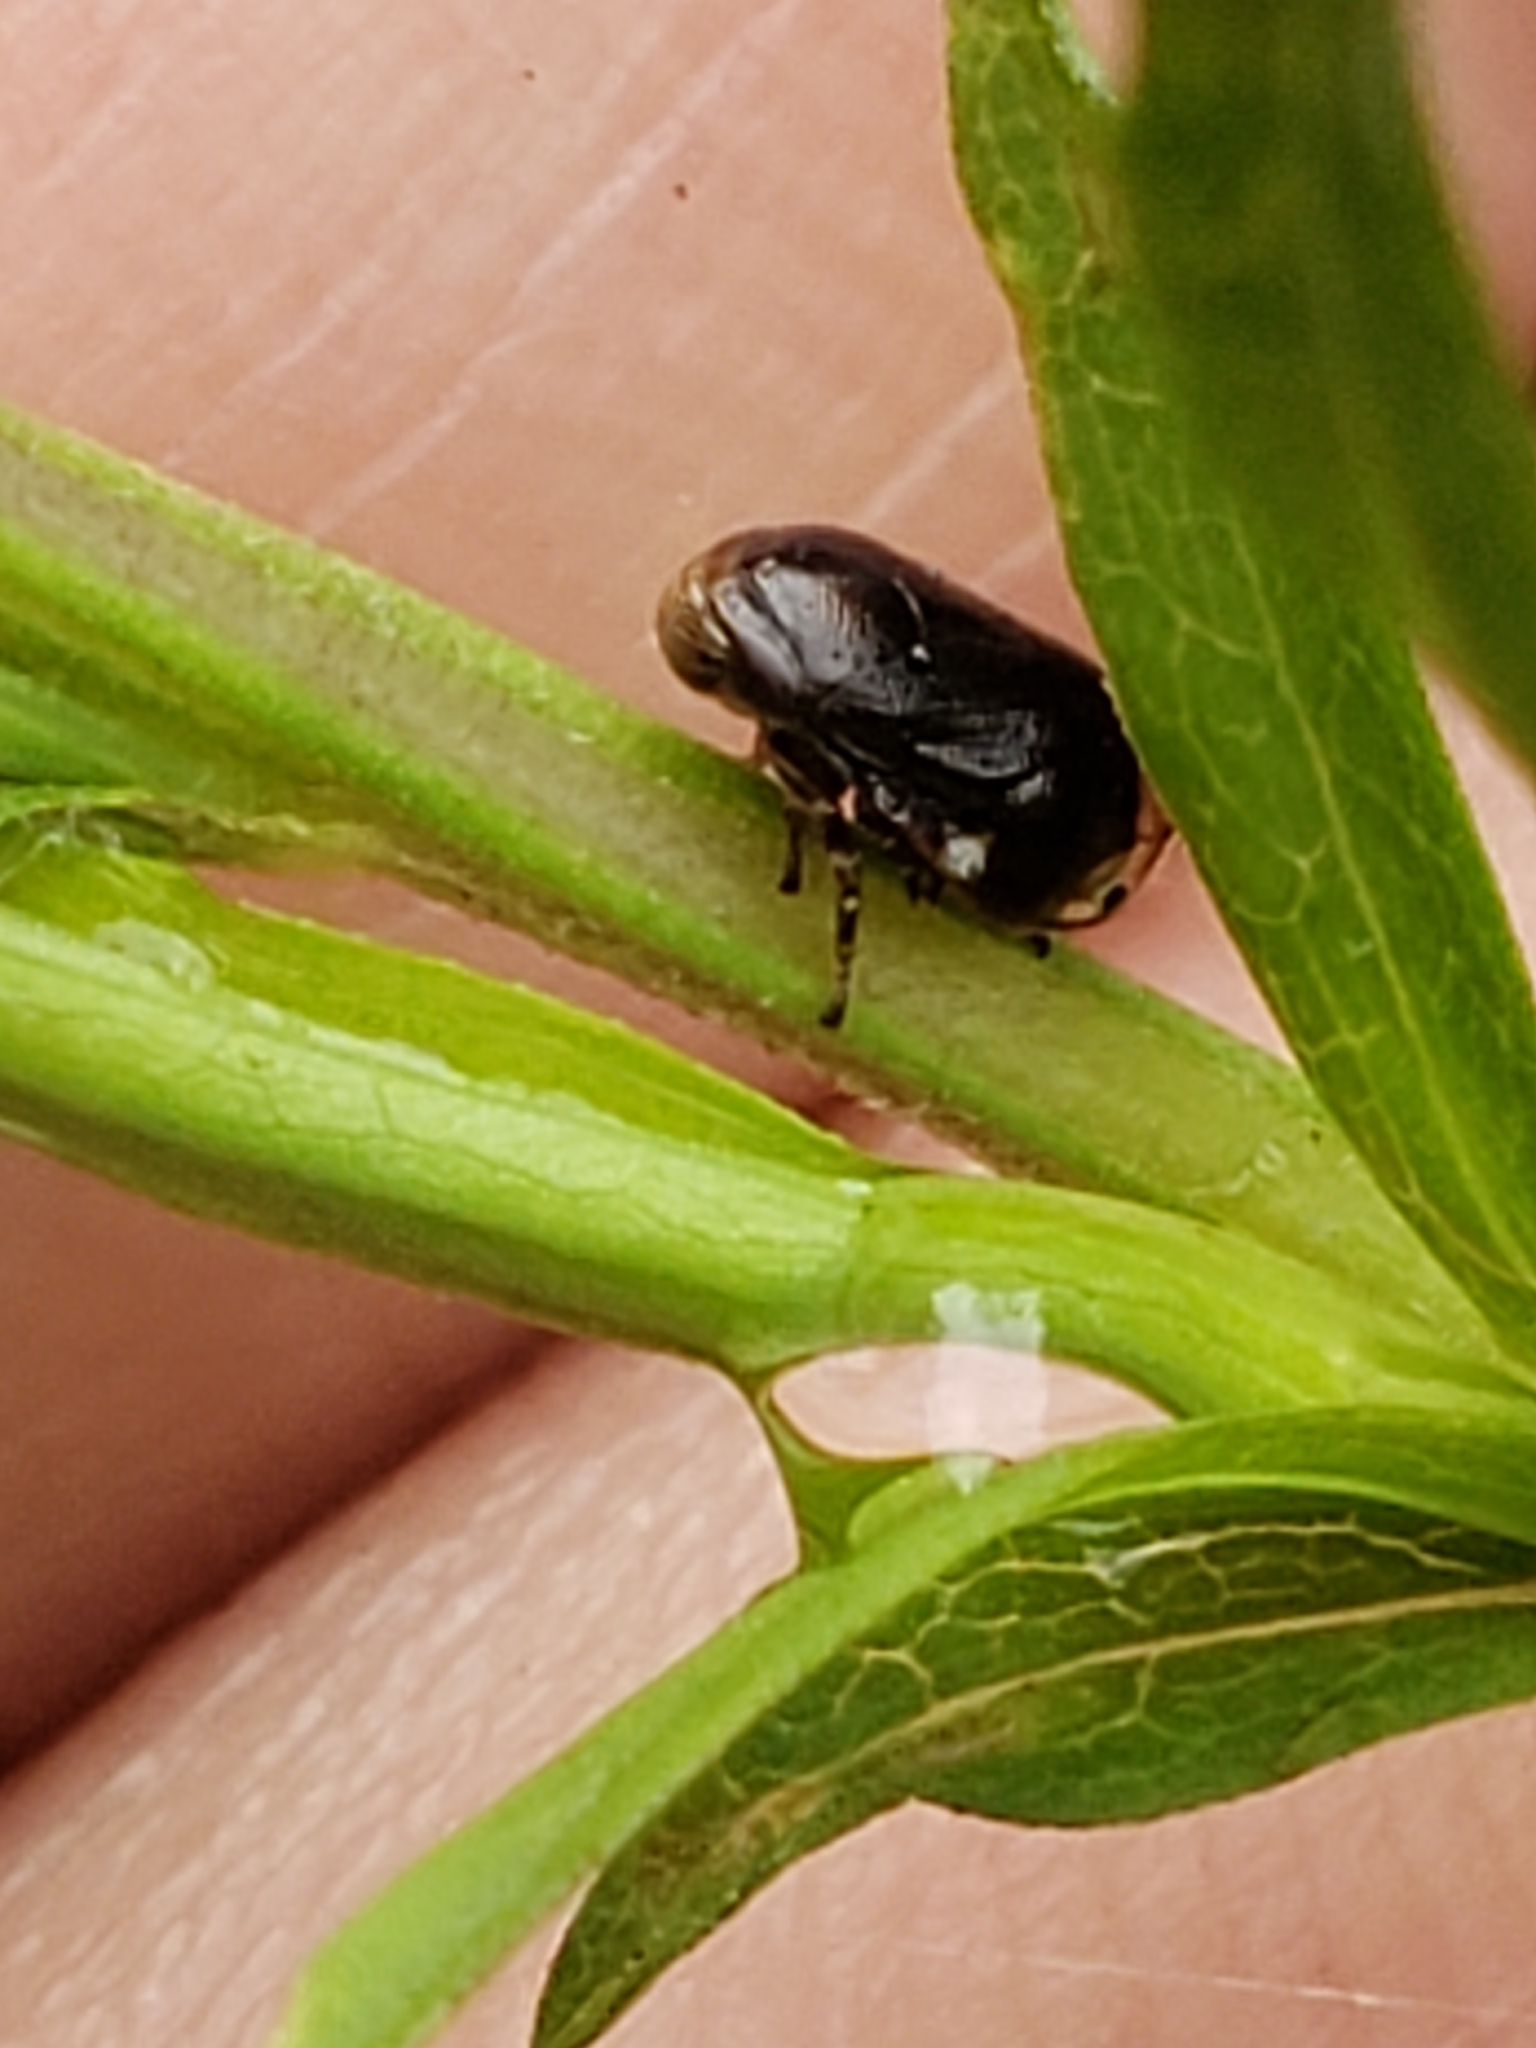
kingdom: Animalia
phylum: Arthropoda
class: Insecta
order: Hemiptera
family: Clastopteridae
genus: Clastoptera
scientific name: Clastoptera xanthocephala
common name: Sunflower spittlebug
